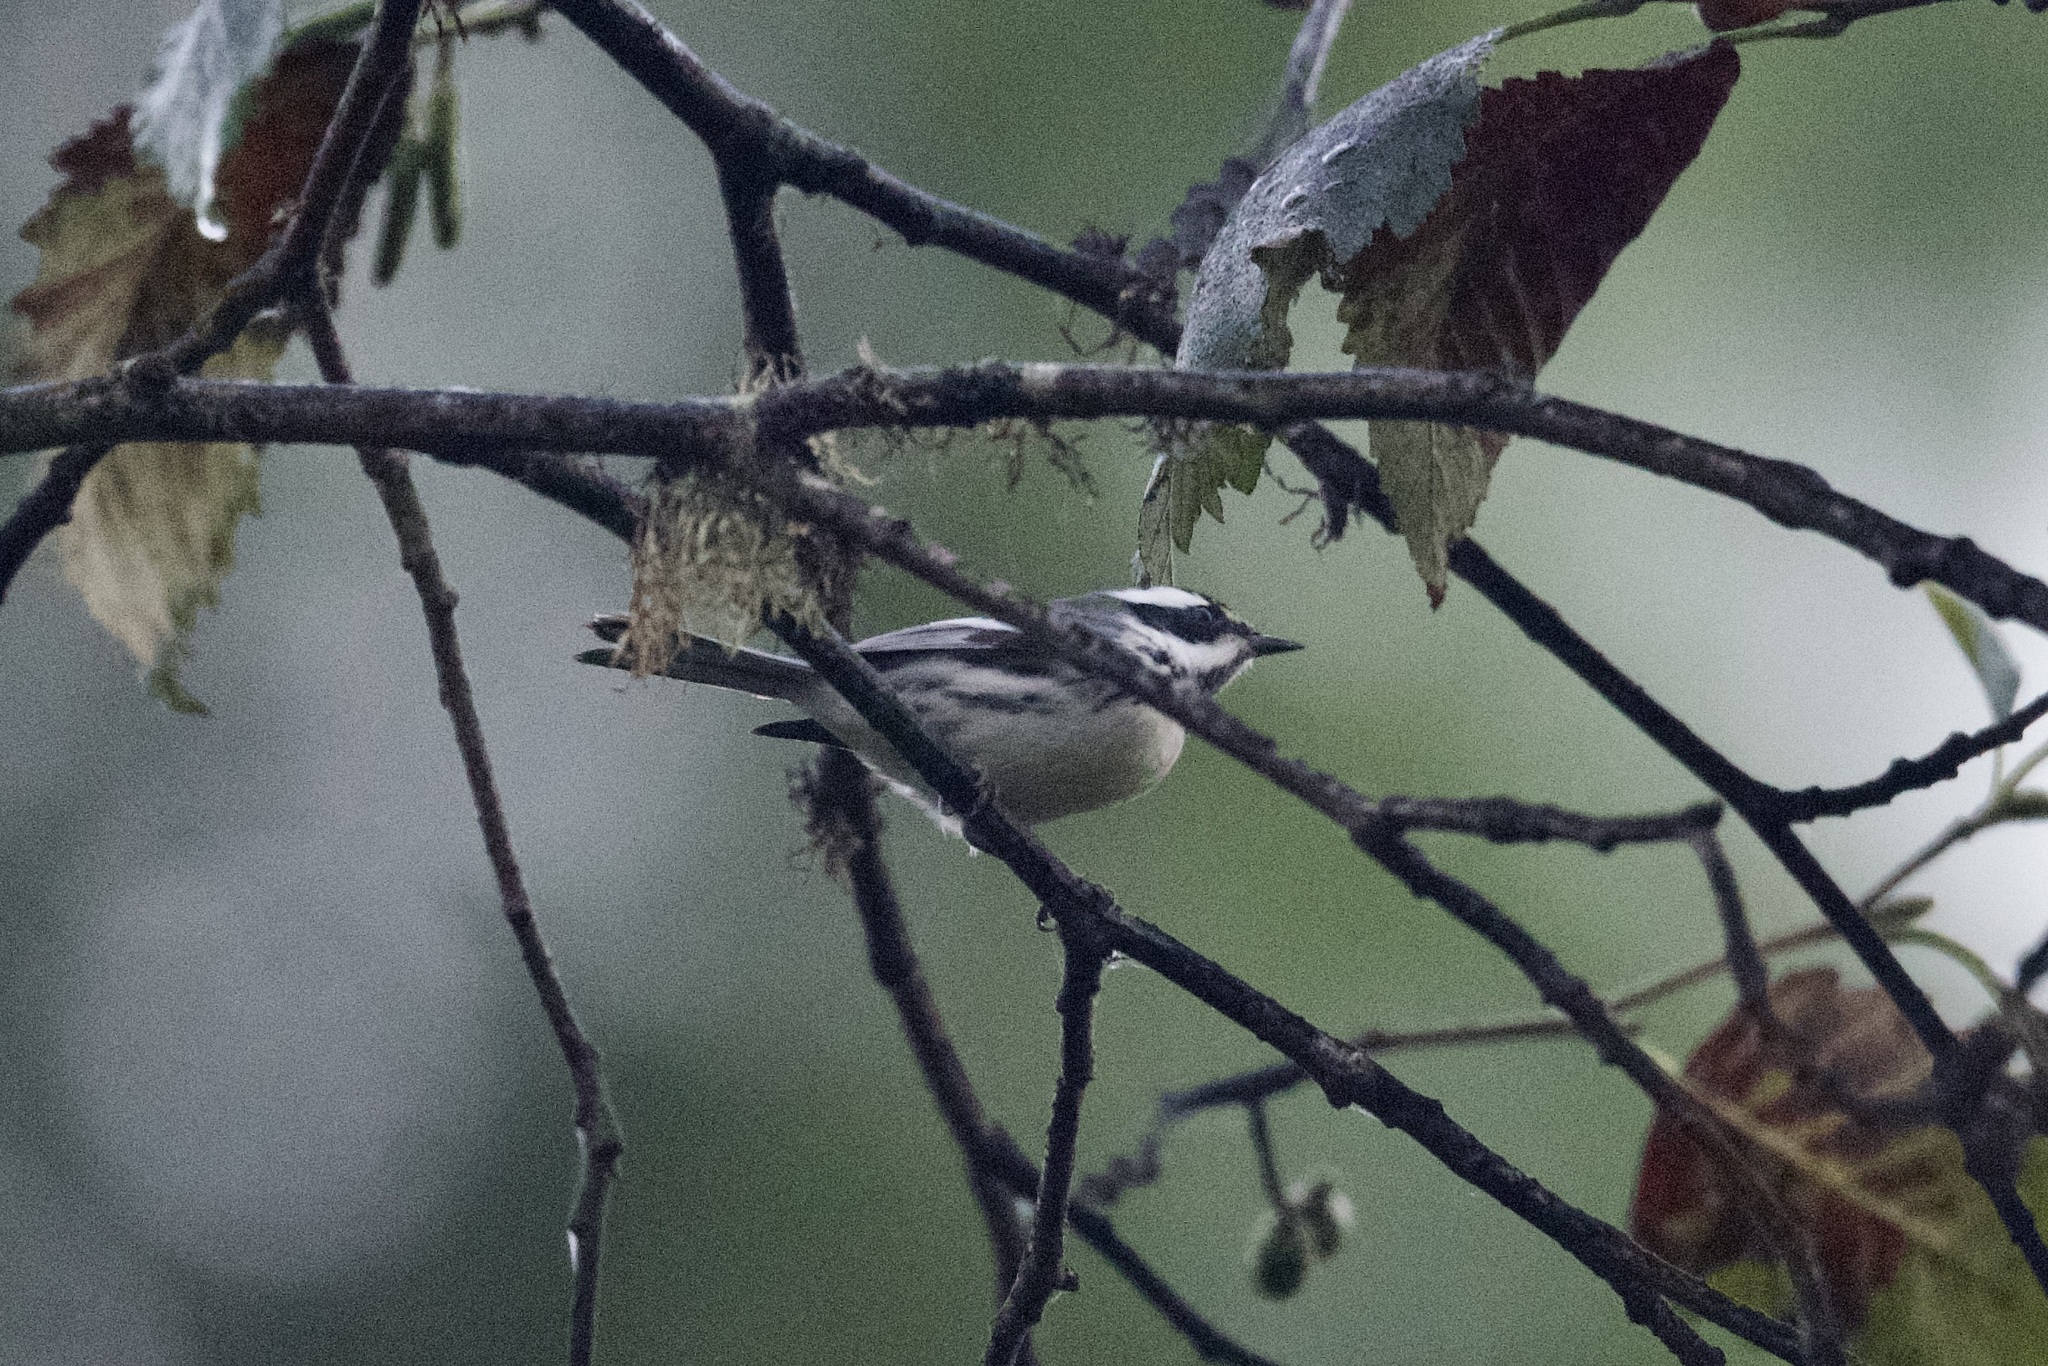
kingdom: Animalia
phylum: Chordata
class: Aves
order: Passeriformes
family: Parulidae
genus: Setophaga
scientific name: Setophaga nigrescens
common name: Black-throated gray warbler
